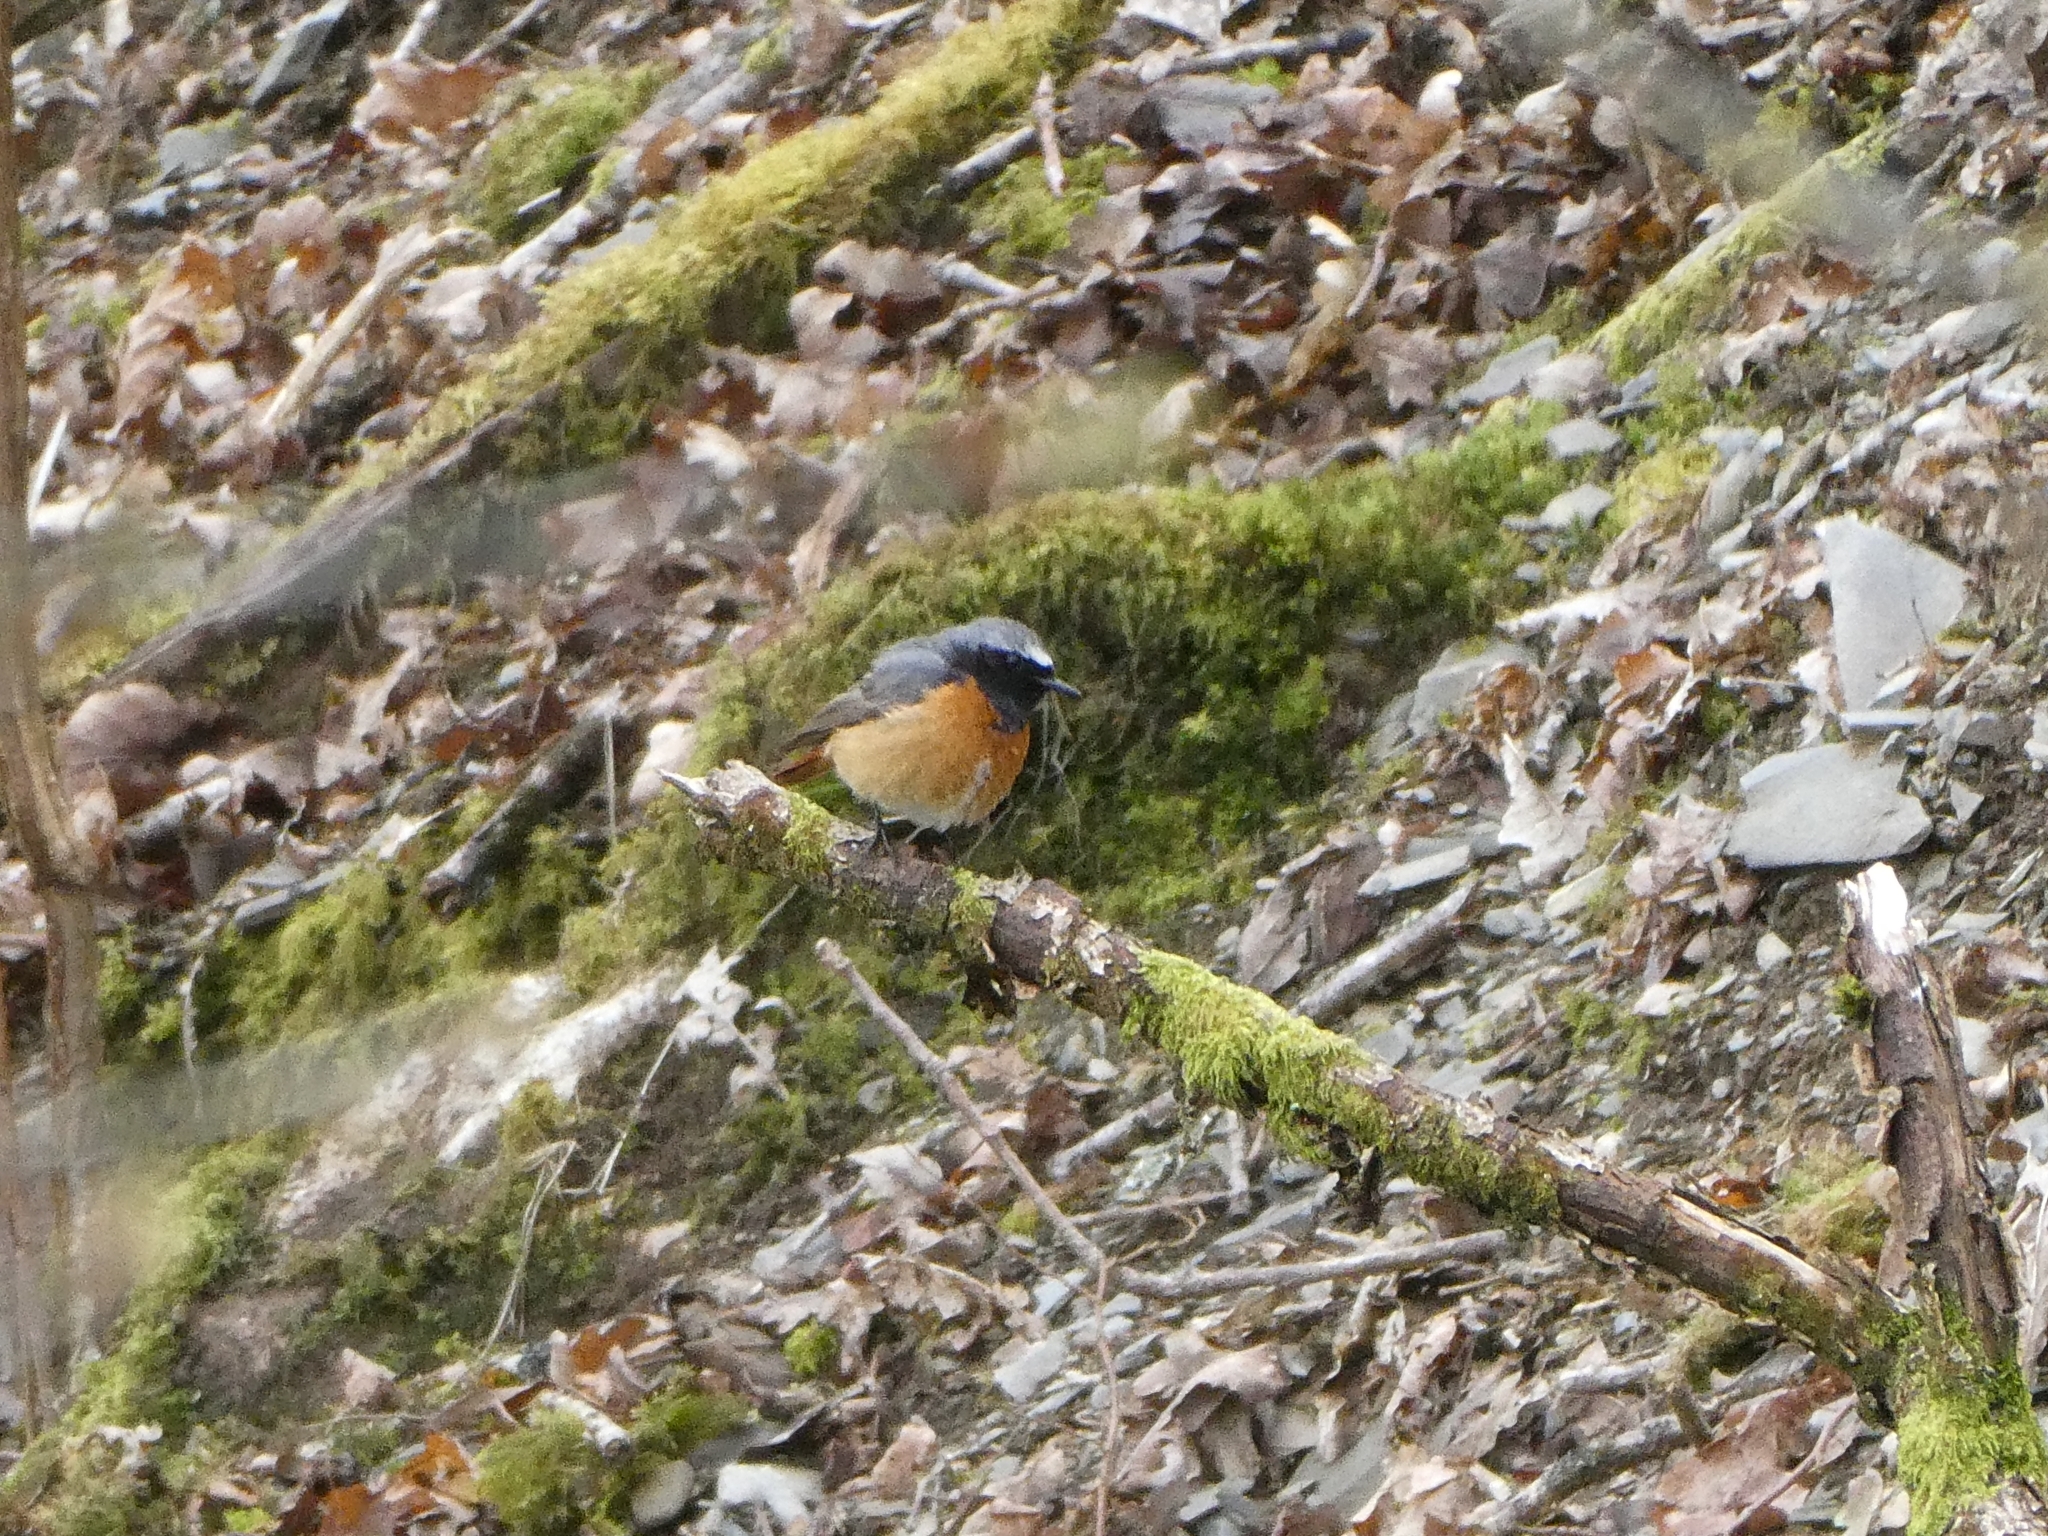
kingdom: Animalia
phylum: Chordata
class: Aves
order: Passeriformes
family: Muscicapidae
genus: Phoenicurus
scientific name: Phoenicurus phoenicurus
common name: Common redstart
